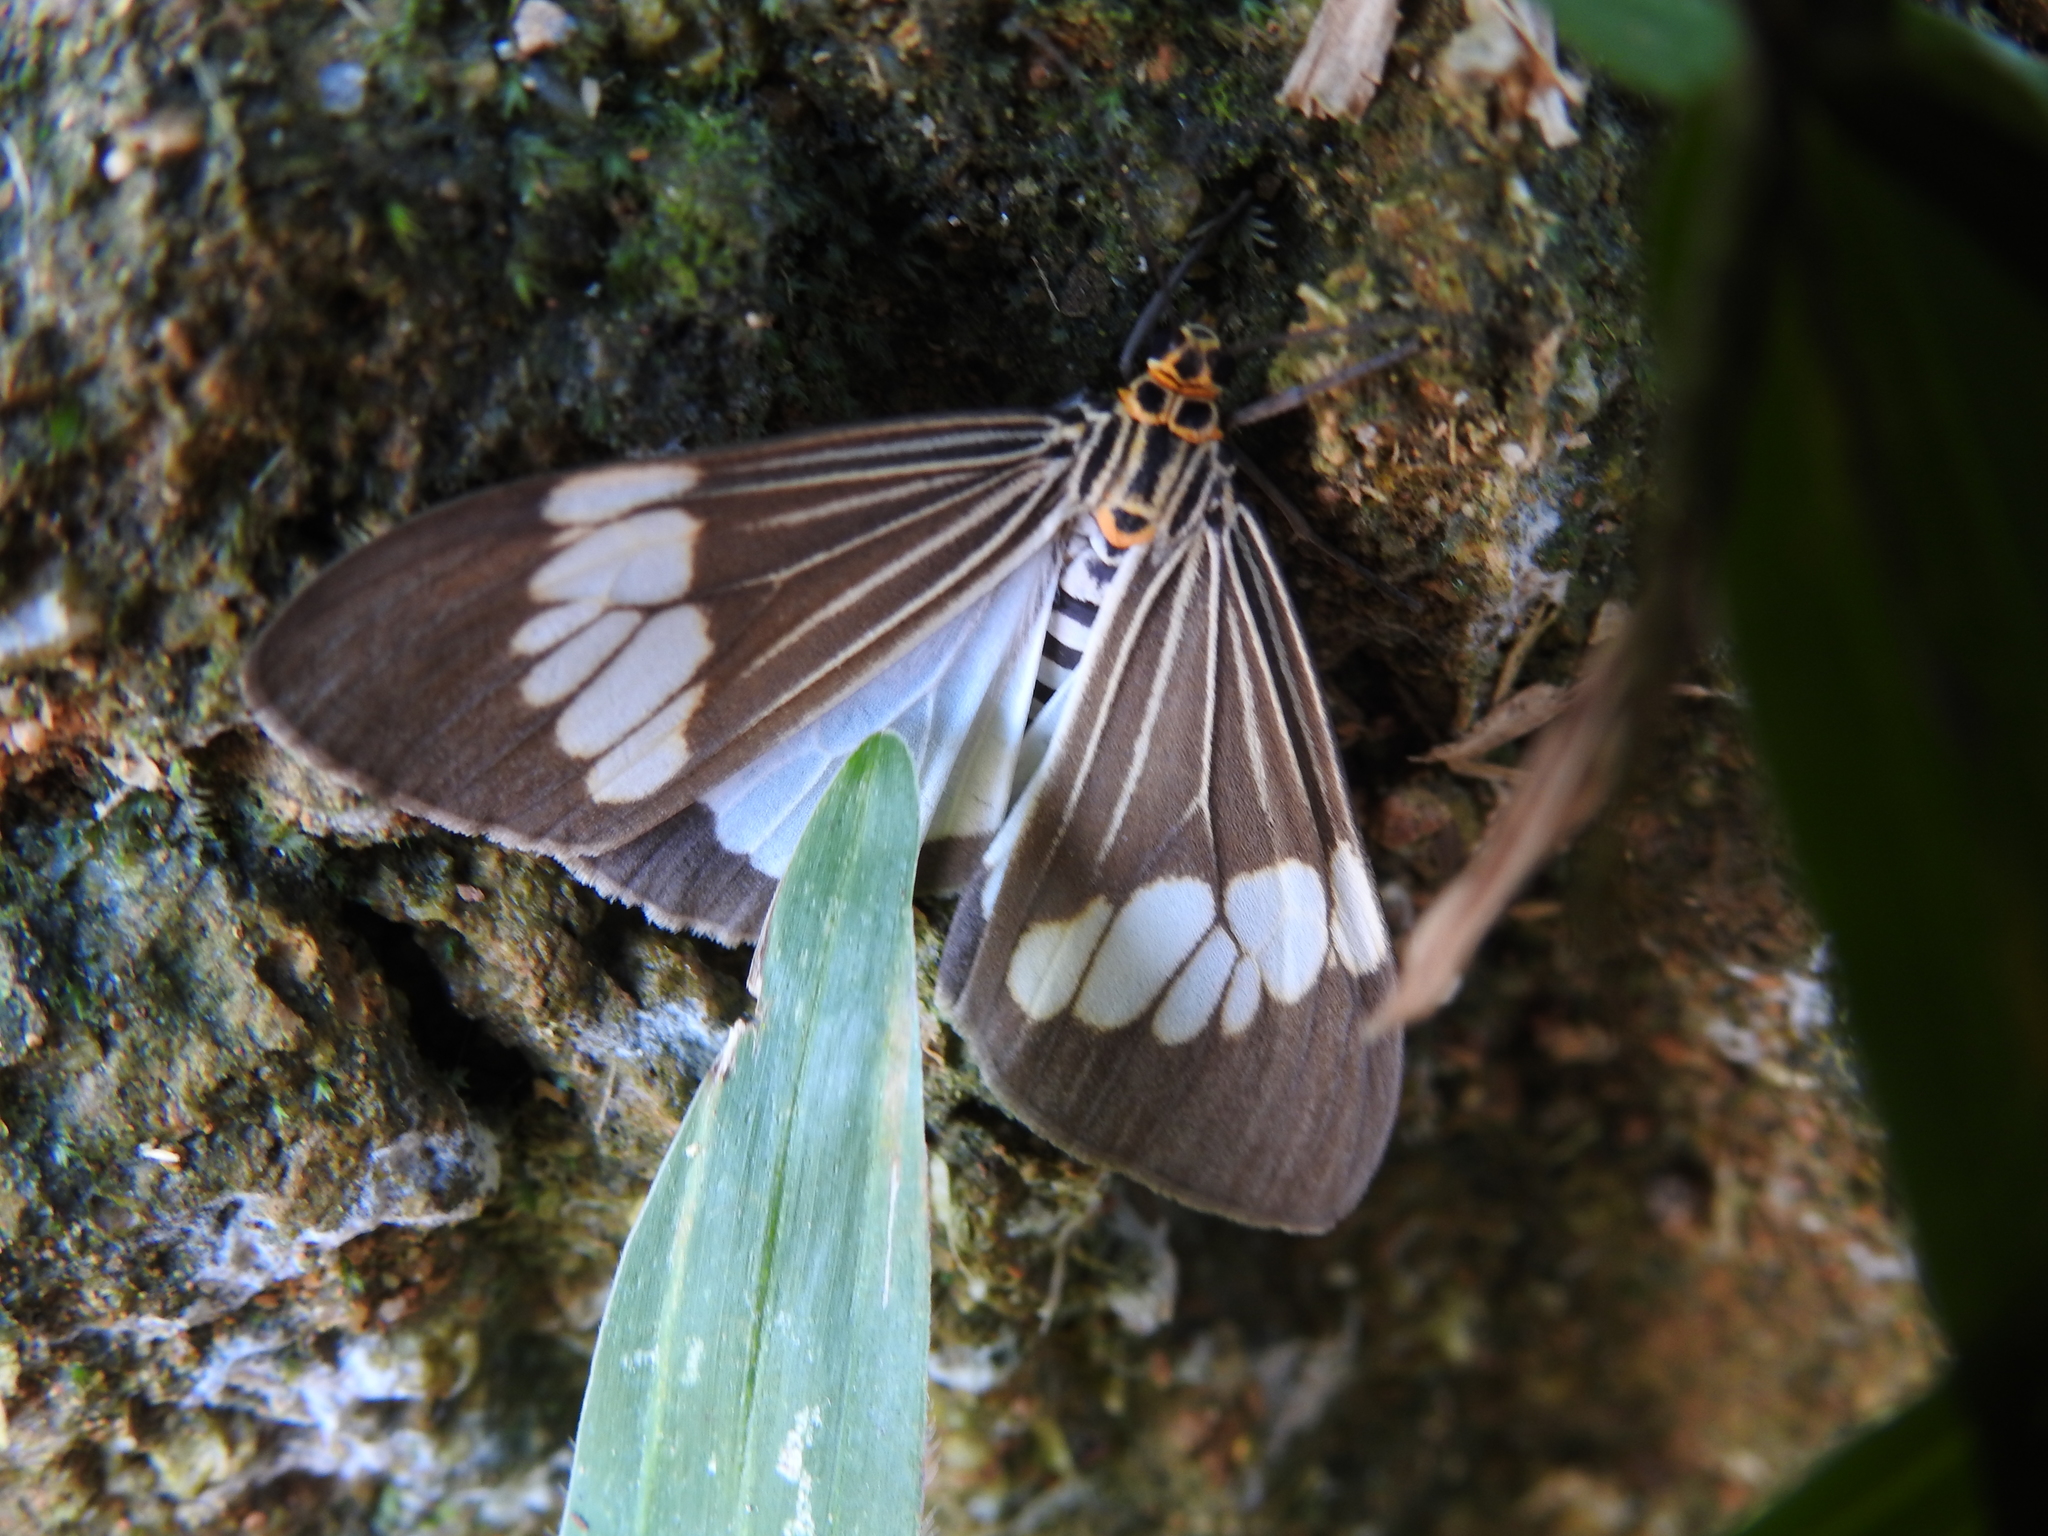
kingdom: Animalia
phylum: Arthropoda
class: Insecta
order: Lepidoptera
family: Erebidae
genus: Nyctemera
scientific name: Nyctemera baulus
